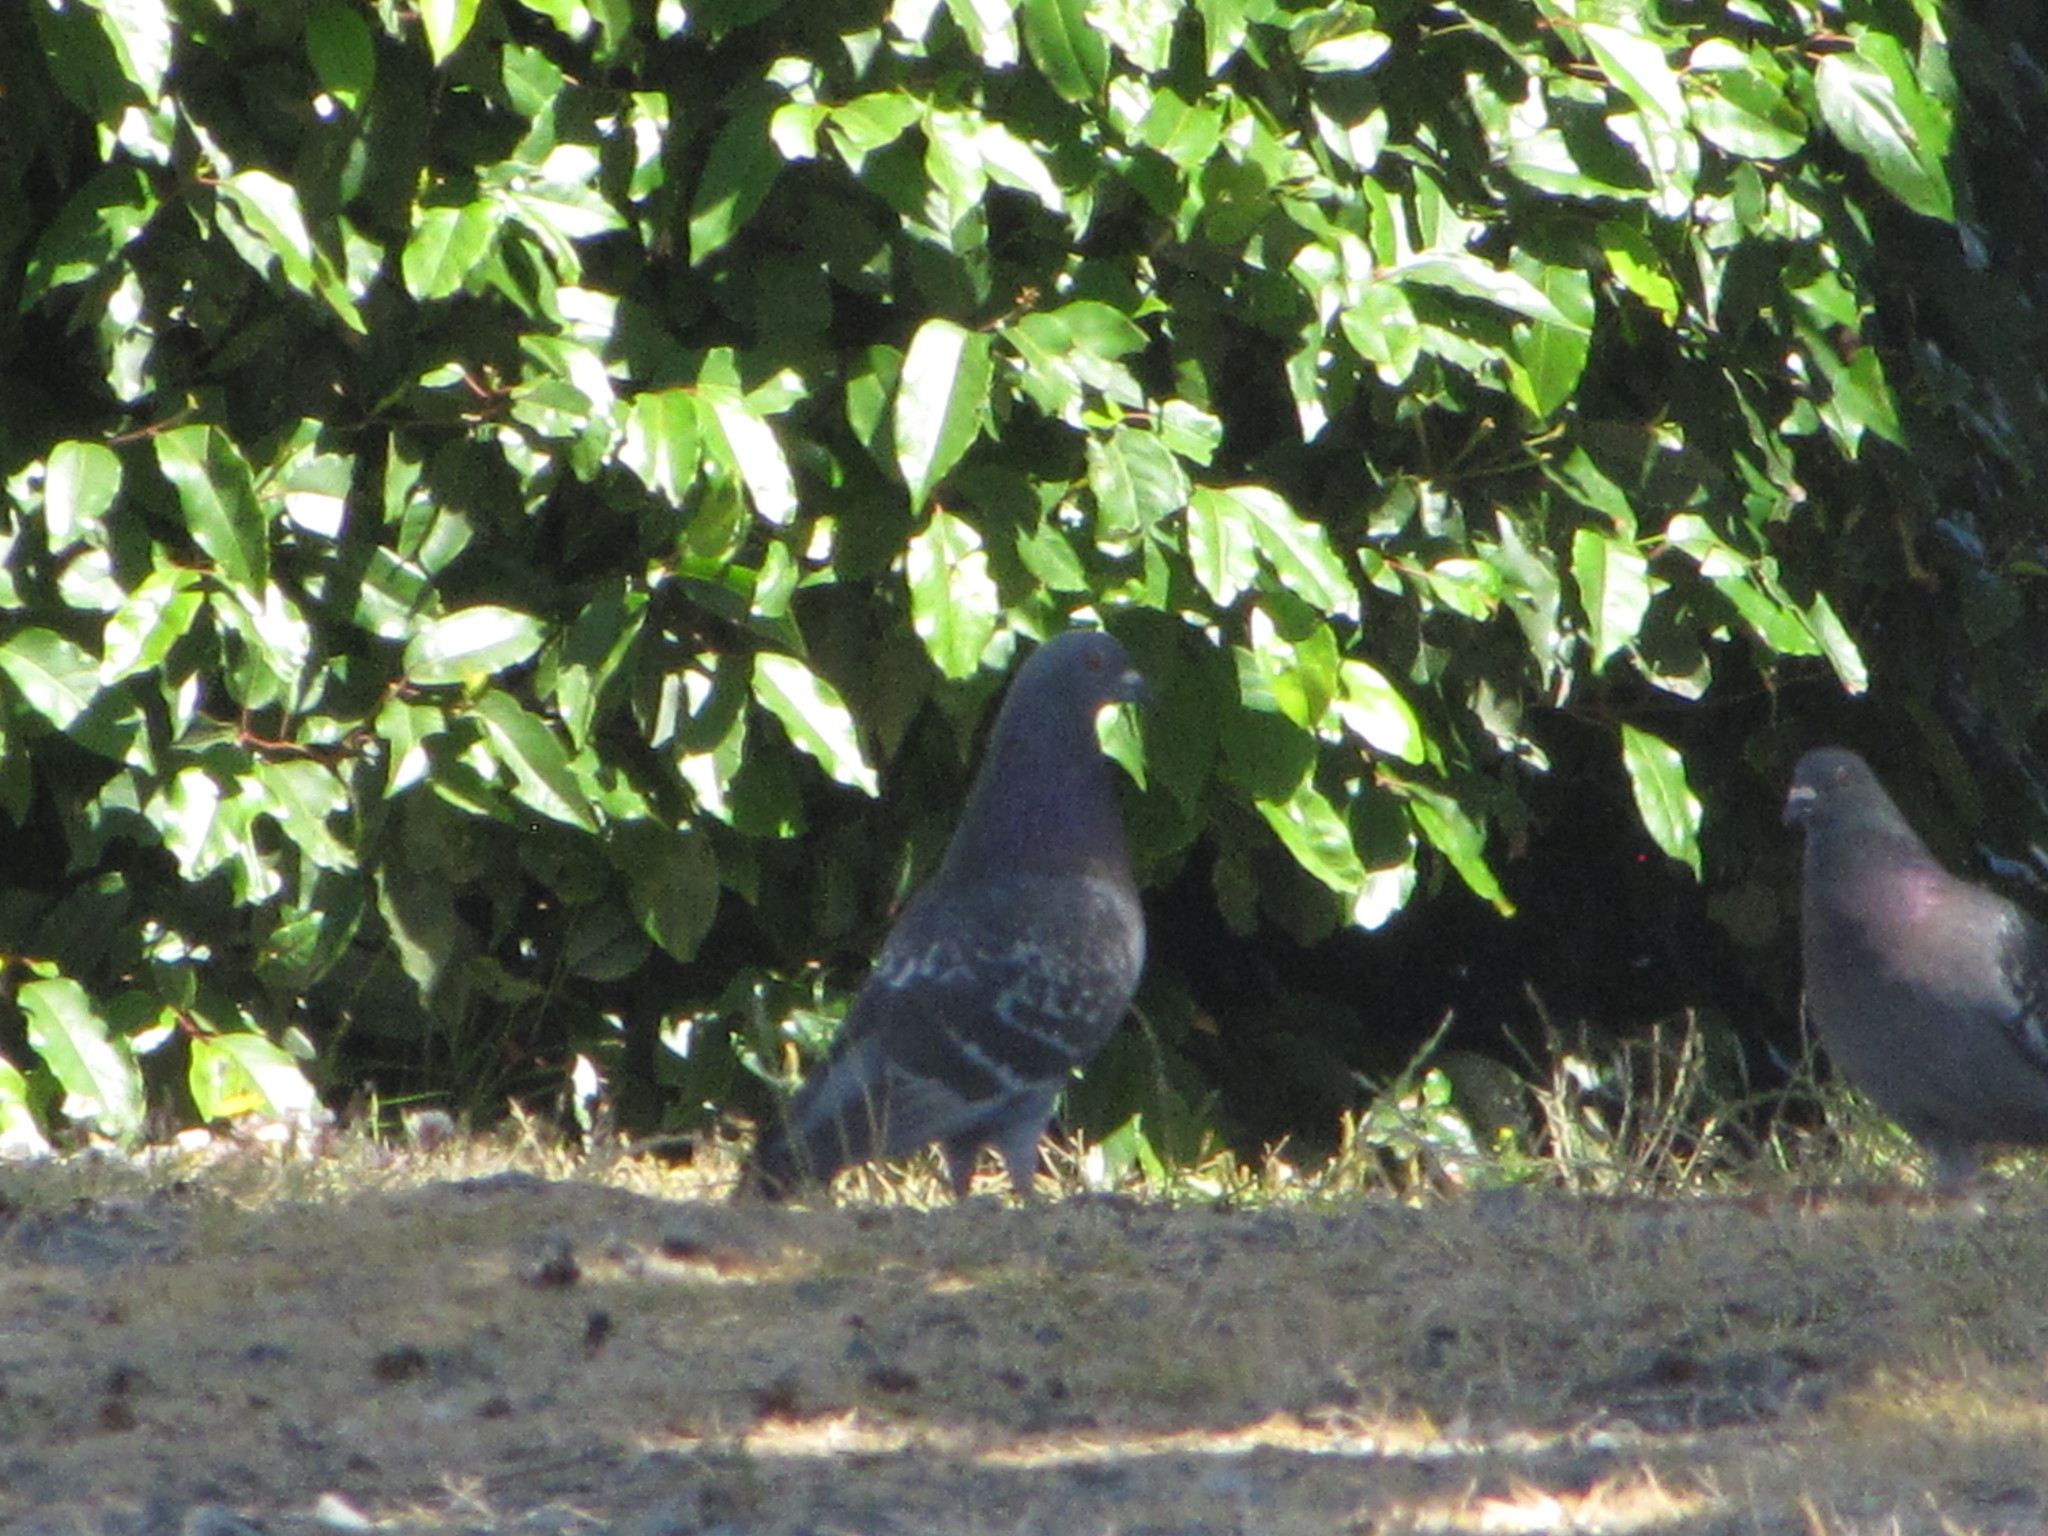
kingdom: Animalia
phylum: Chordata
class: Aves
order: Columbiformes
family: Columbidae
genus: Columba
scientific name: Columba livia
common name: Rock pigeon
